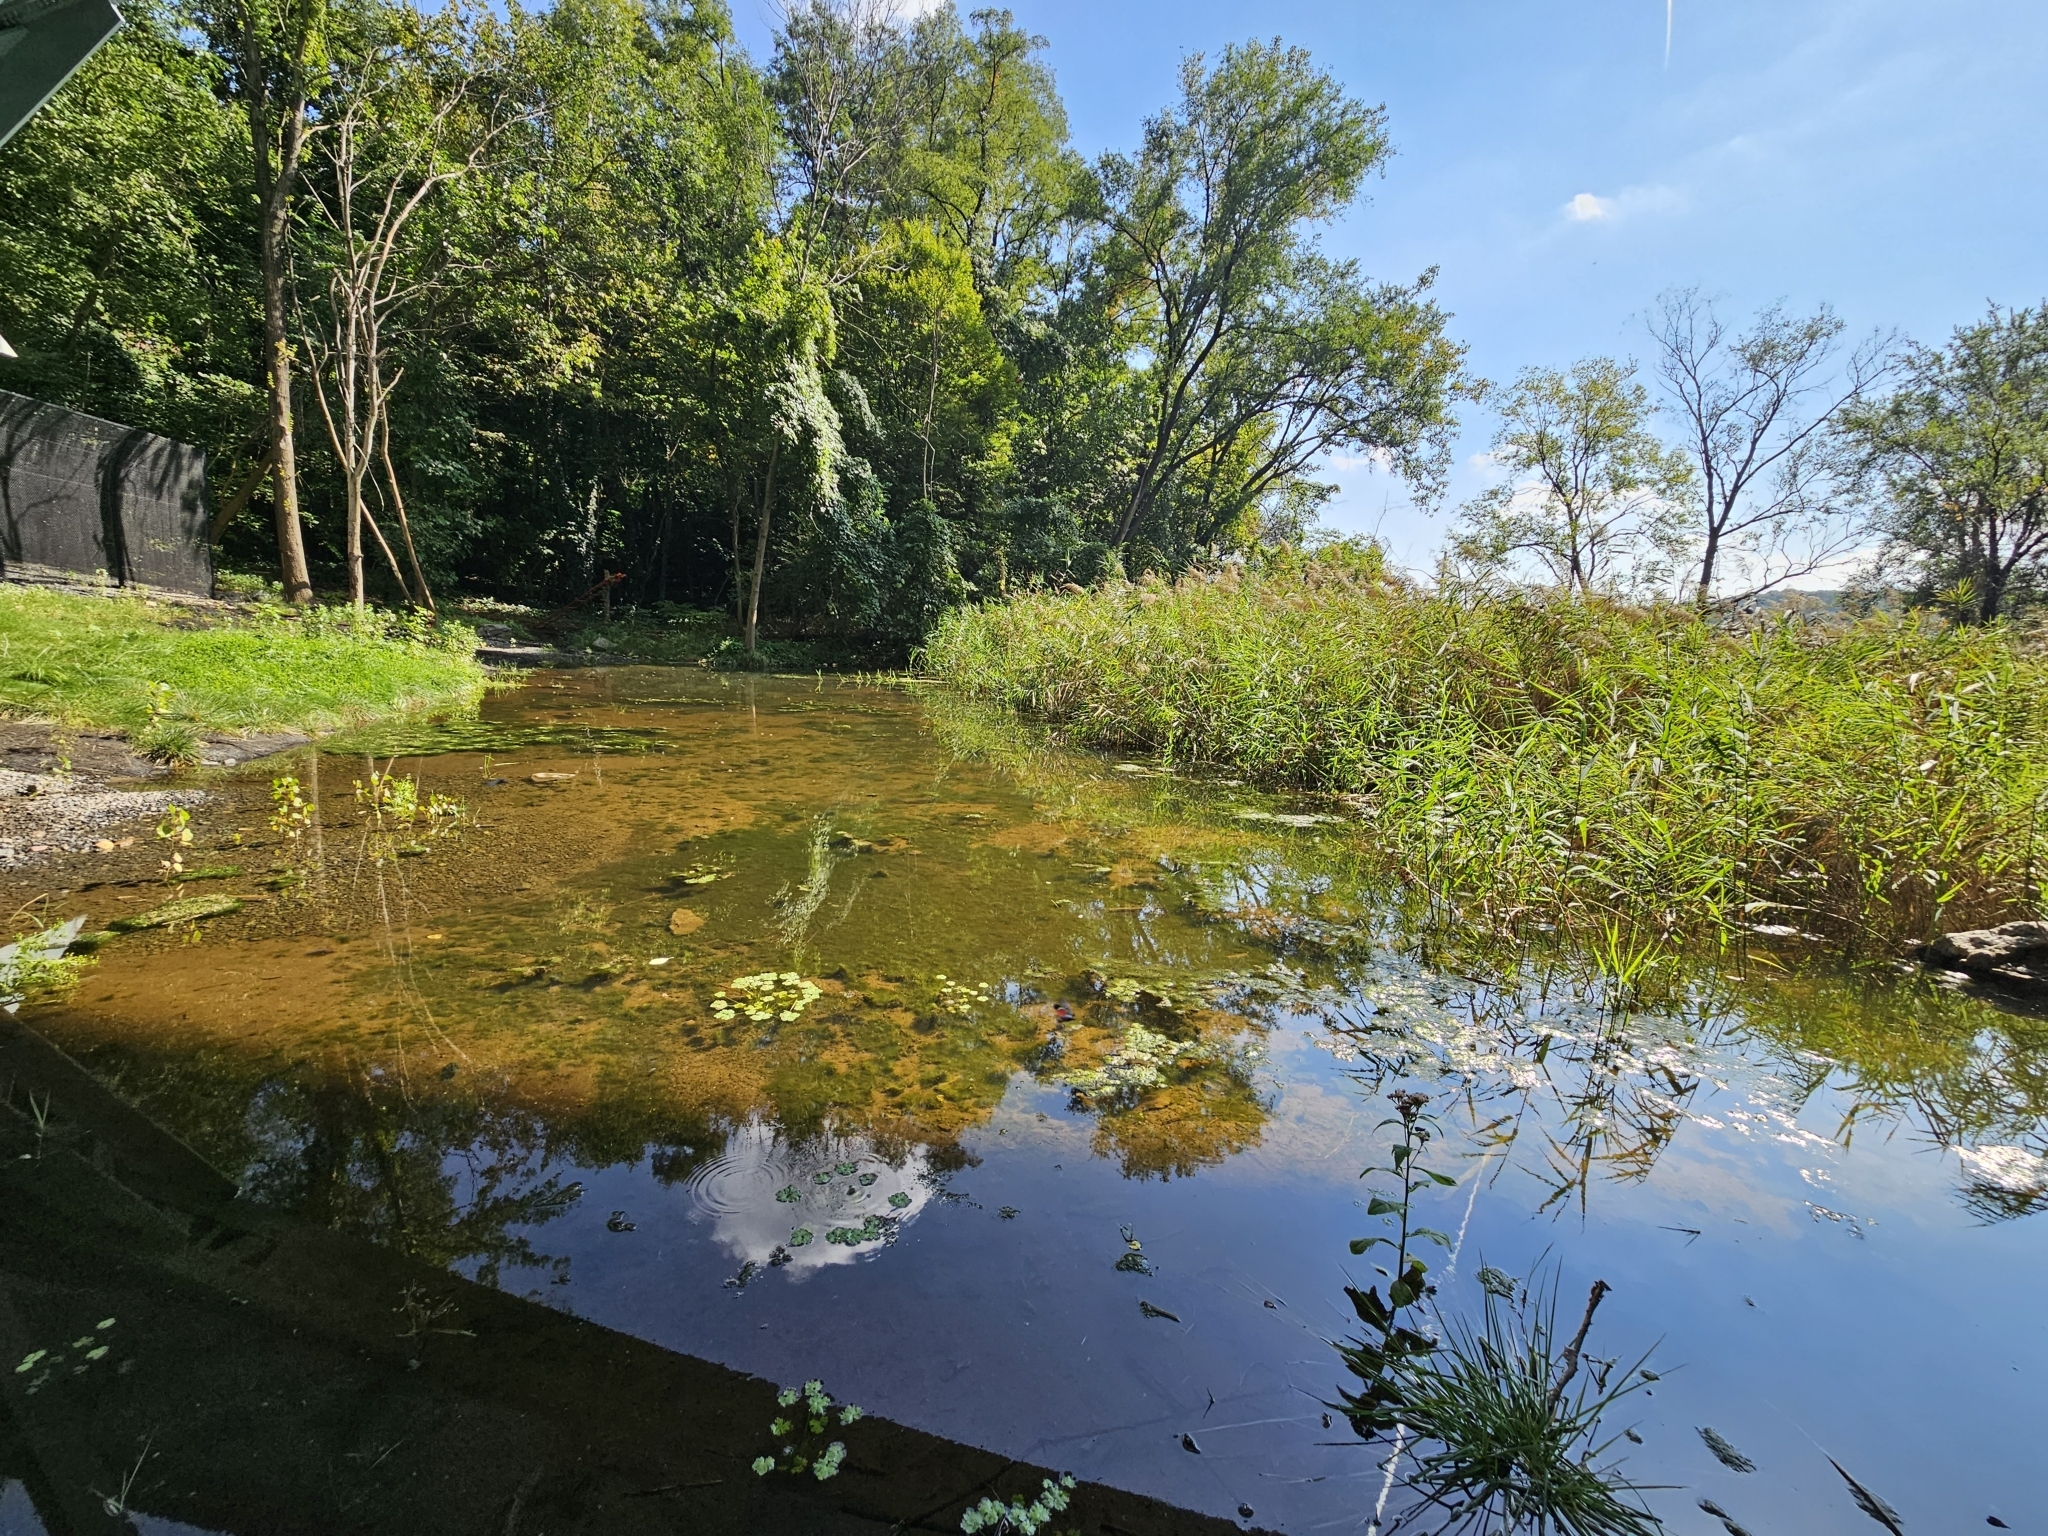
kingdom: Plantae
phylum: Tracheophyta
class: Magnoliopsida
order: Asterales
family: Asteraceae
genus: Pluchea
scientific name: Pluchea odorata
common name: Saltmarsh fleabane
